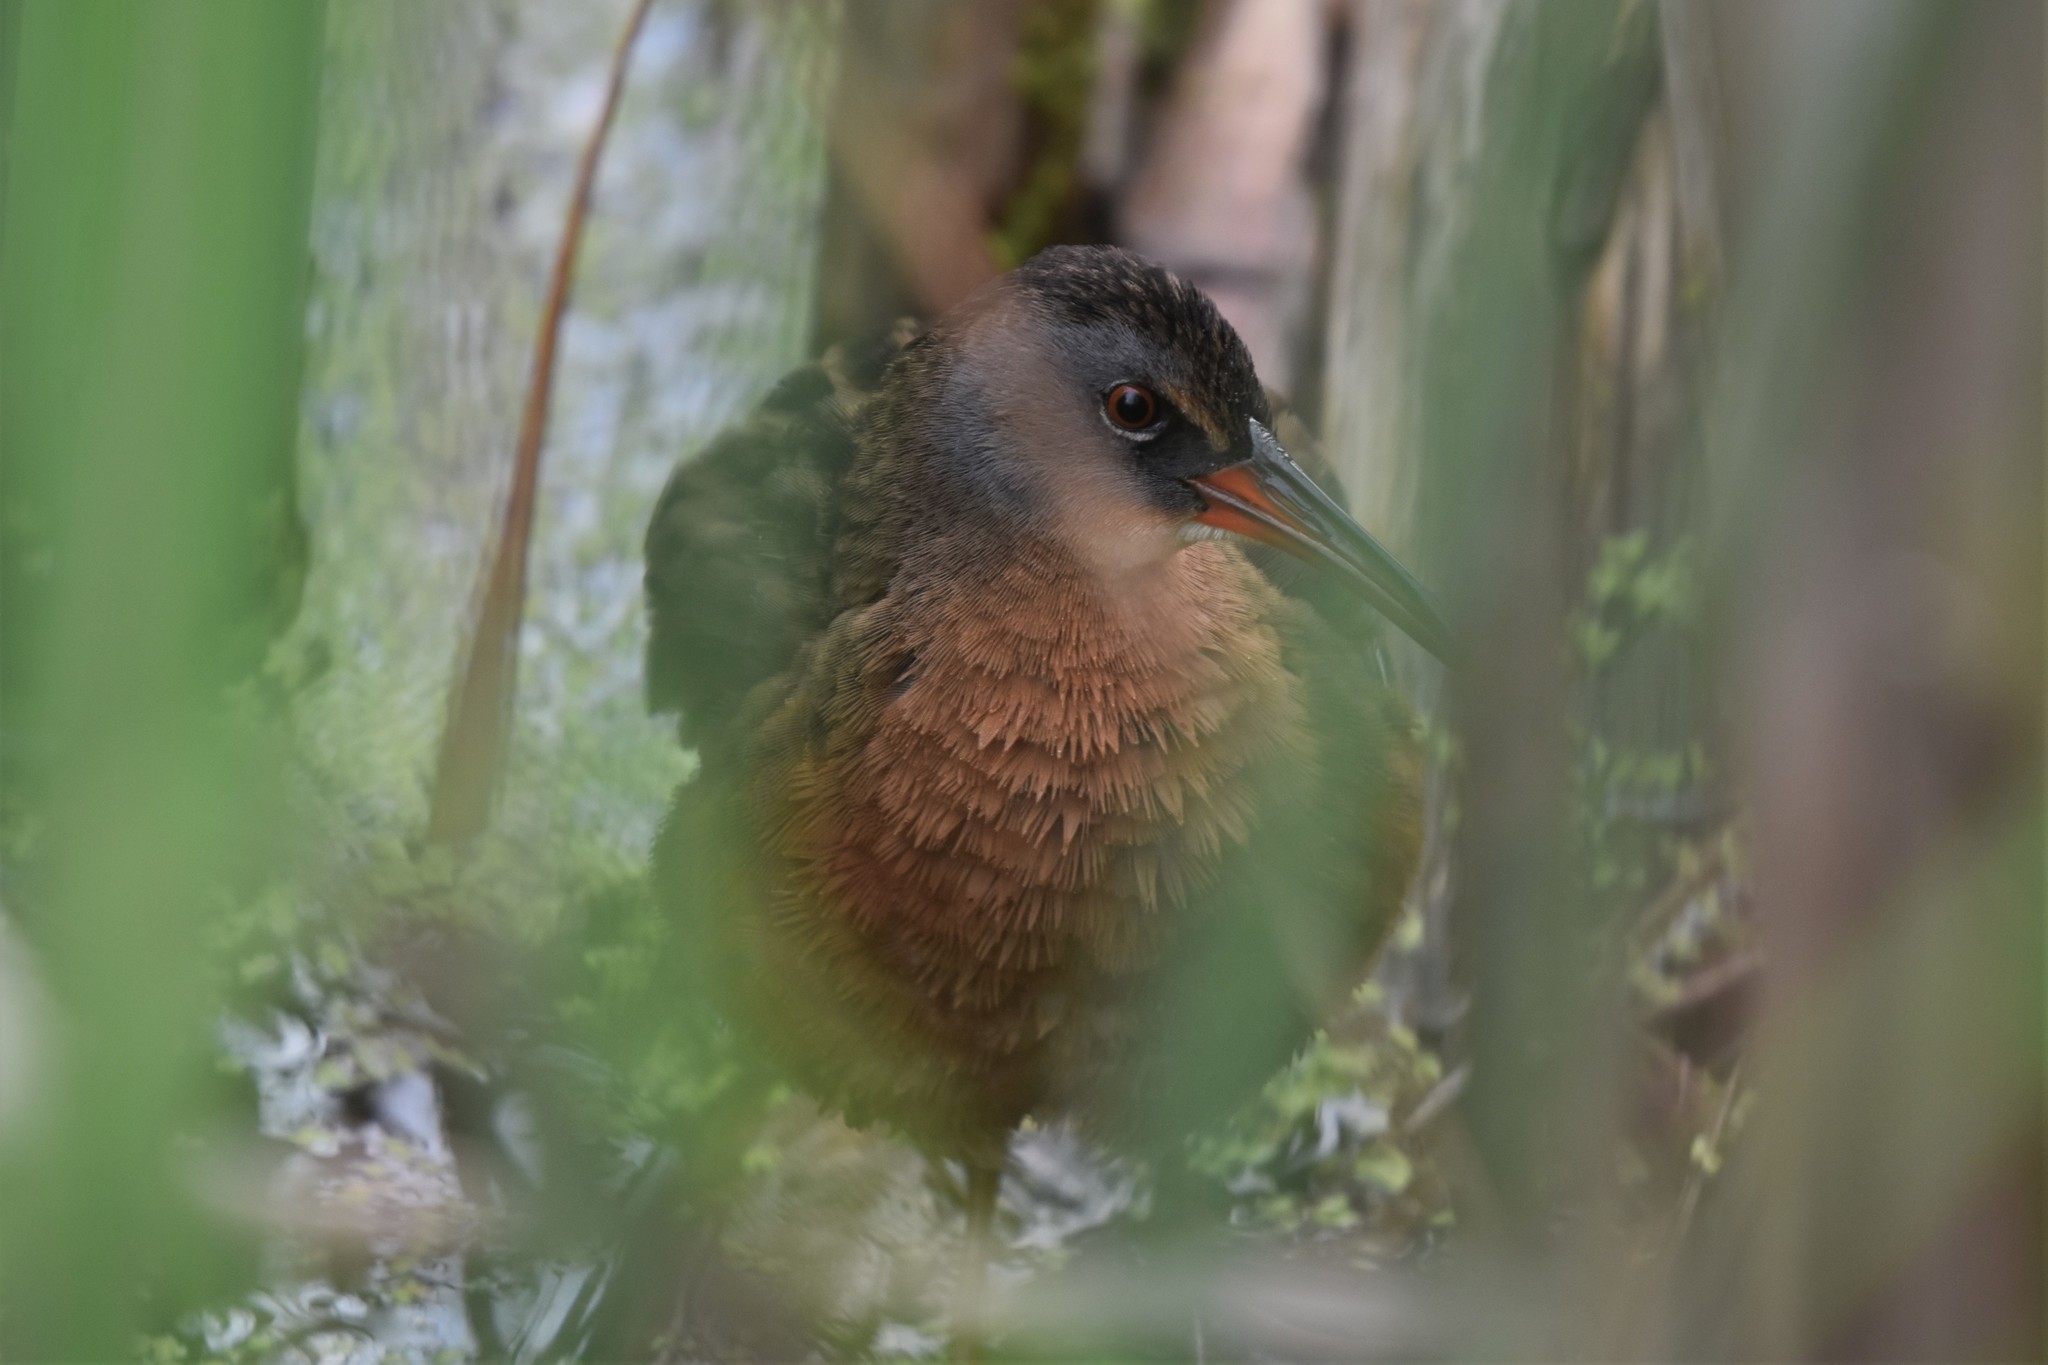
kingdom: Animalia
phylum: Chordata
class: Aves
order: Gruiformes
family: Rallidae
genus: Rallus
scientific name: Rallus limicola
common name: Virginia rail
